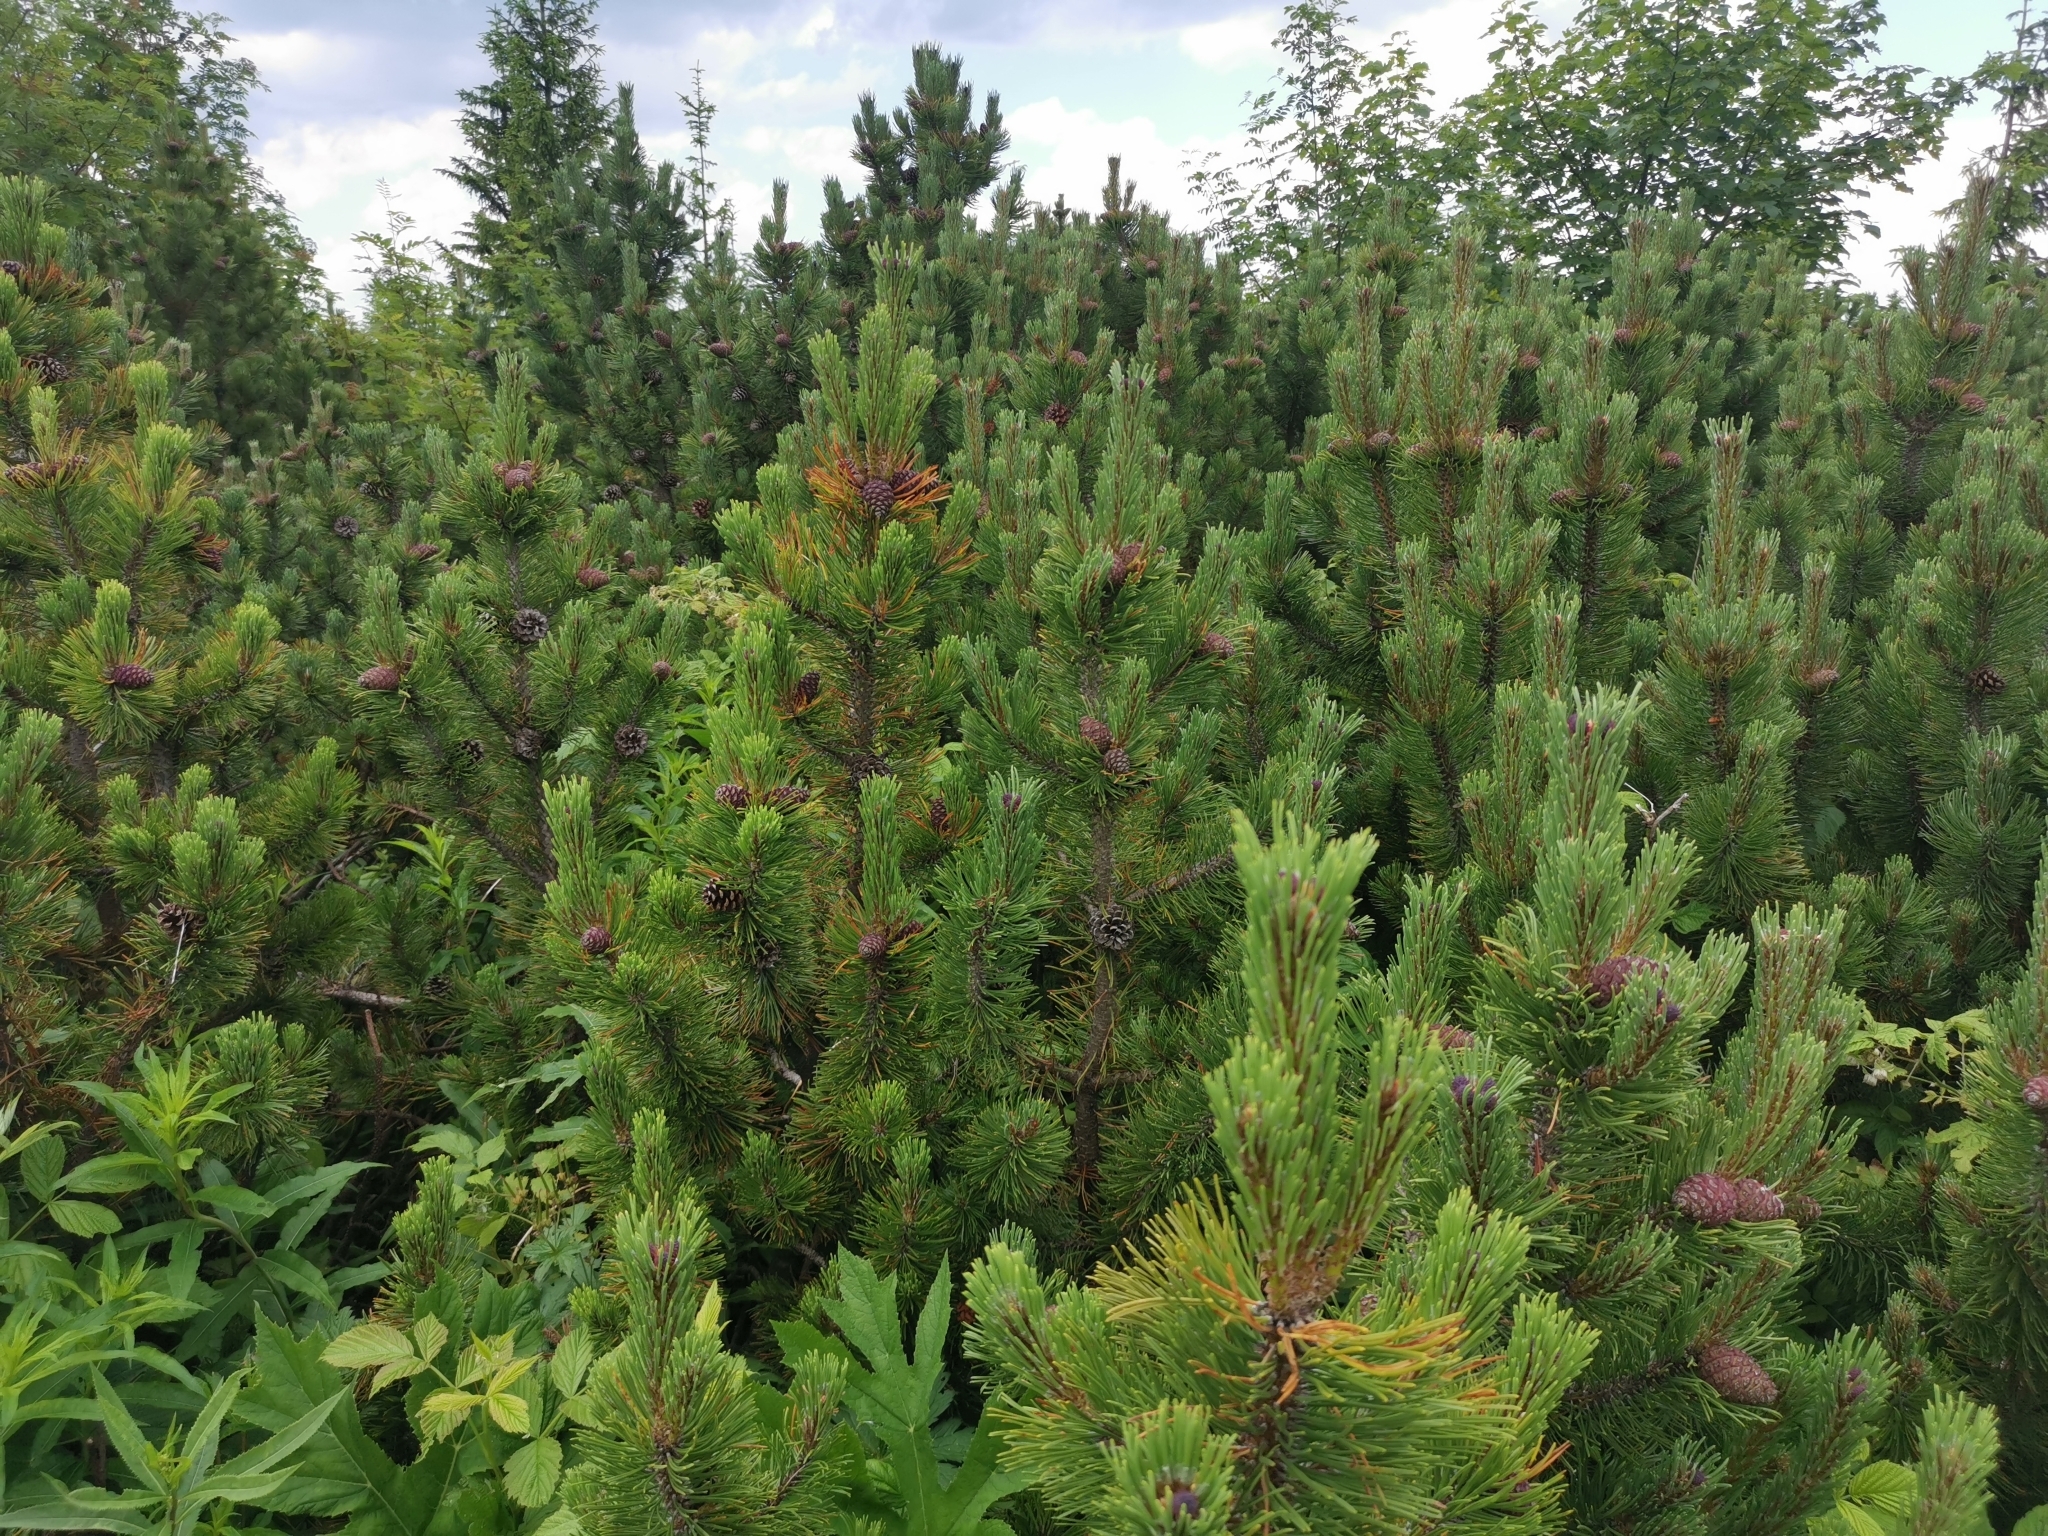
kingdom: Plantae
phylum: Tracheophyta
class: Pinopsida
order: Pinales
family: Pinaceae
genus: Pinus
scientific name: Pinus mugo
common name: Mugo pine
